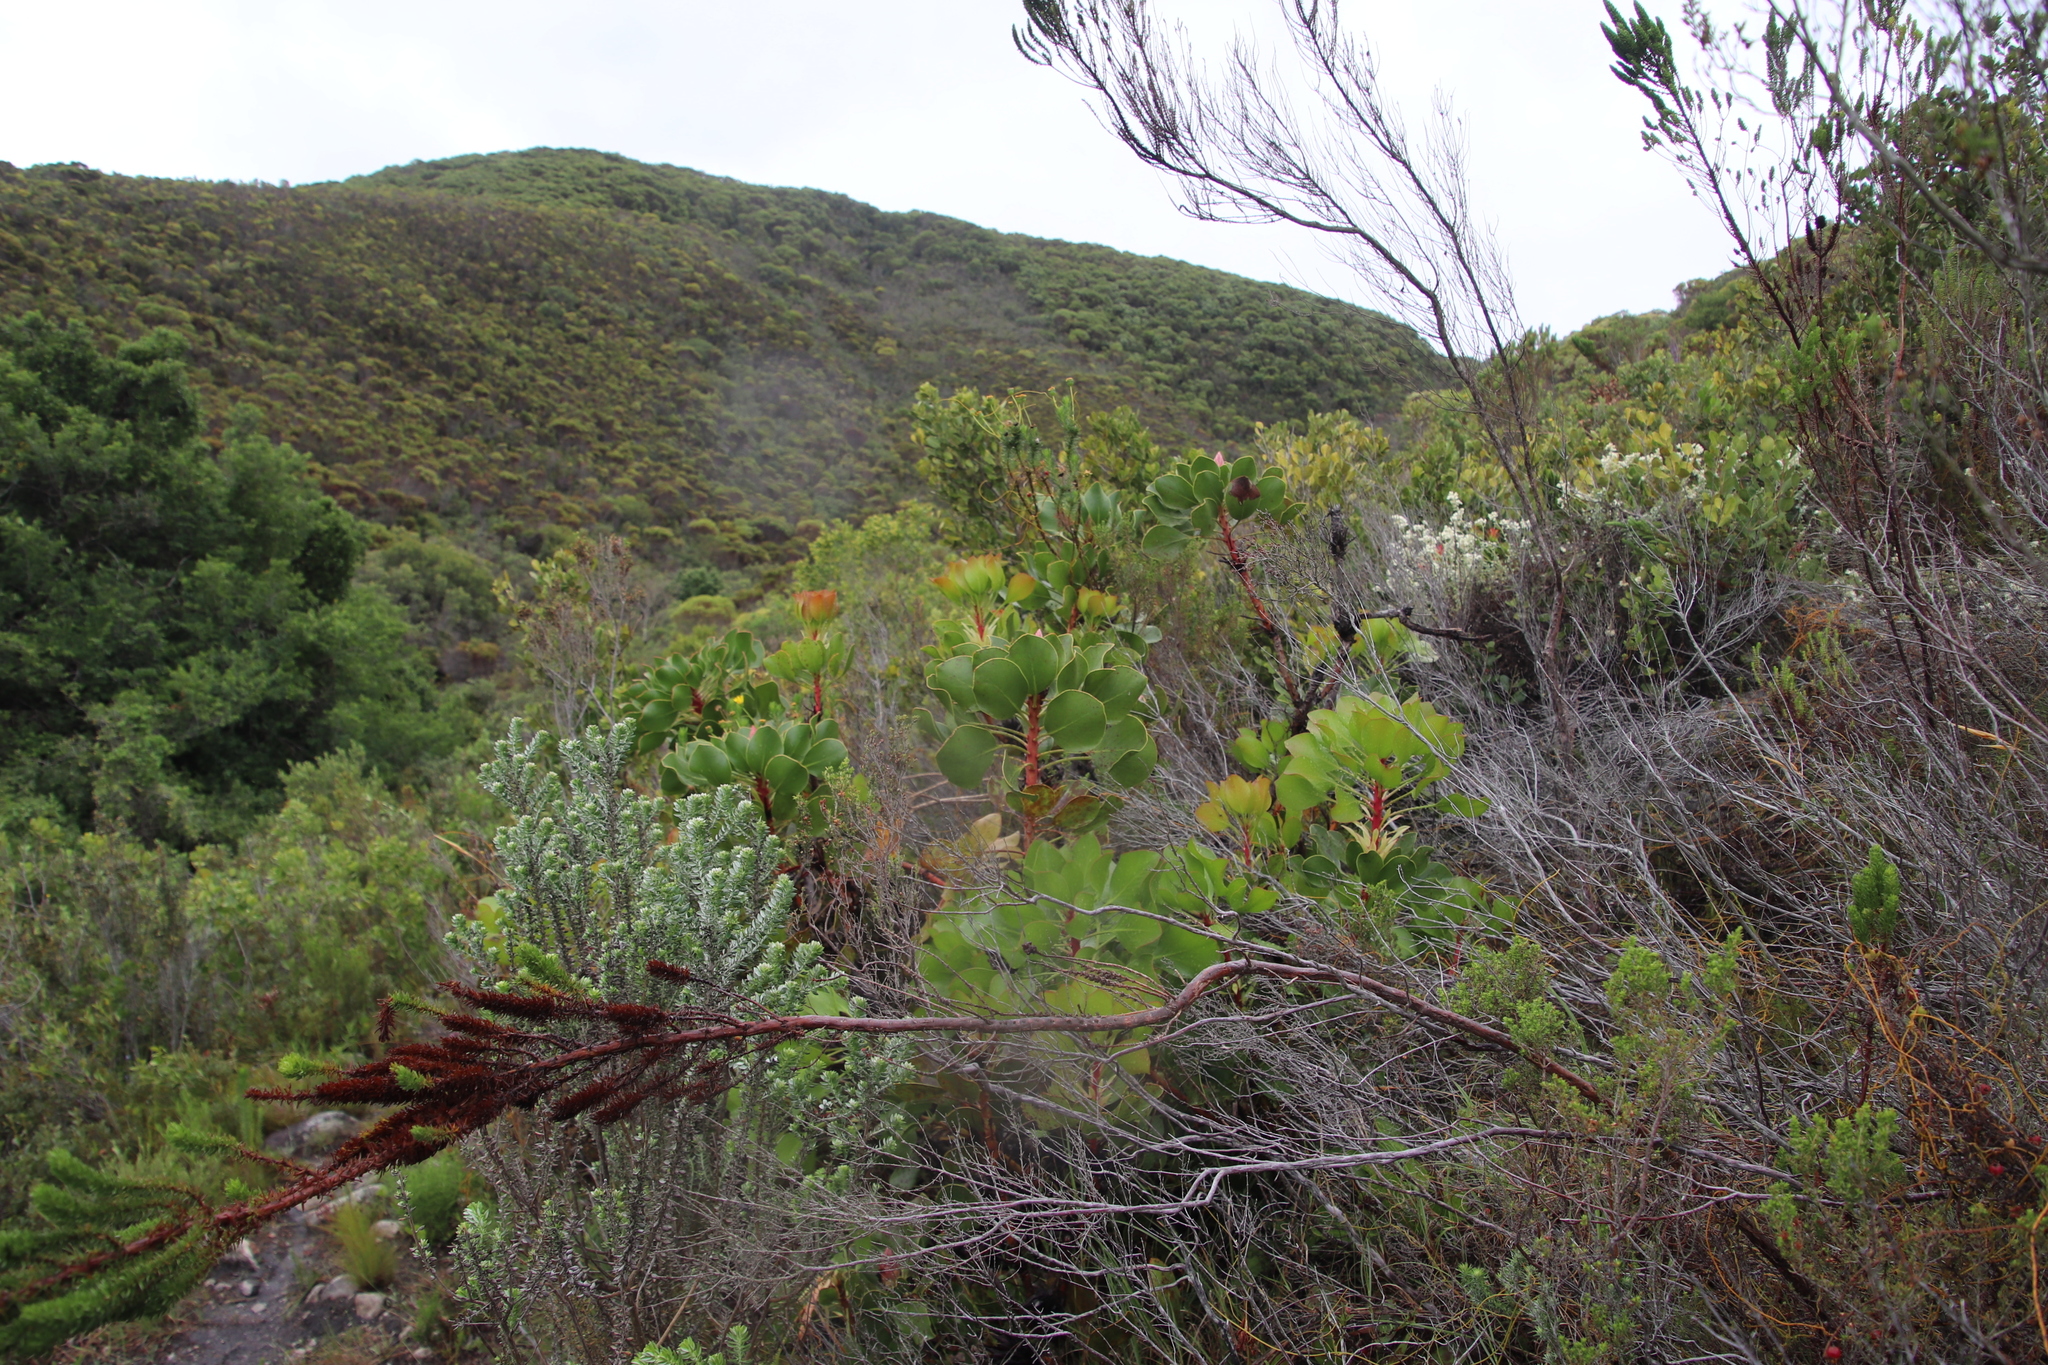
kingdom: Plantae
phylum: Tracheophyta
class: Magnoliopsida
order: Proteales
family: Proteaceae
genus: Protea
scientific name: Protea cynaroides
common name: King protea
